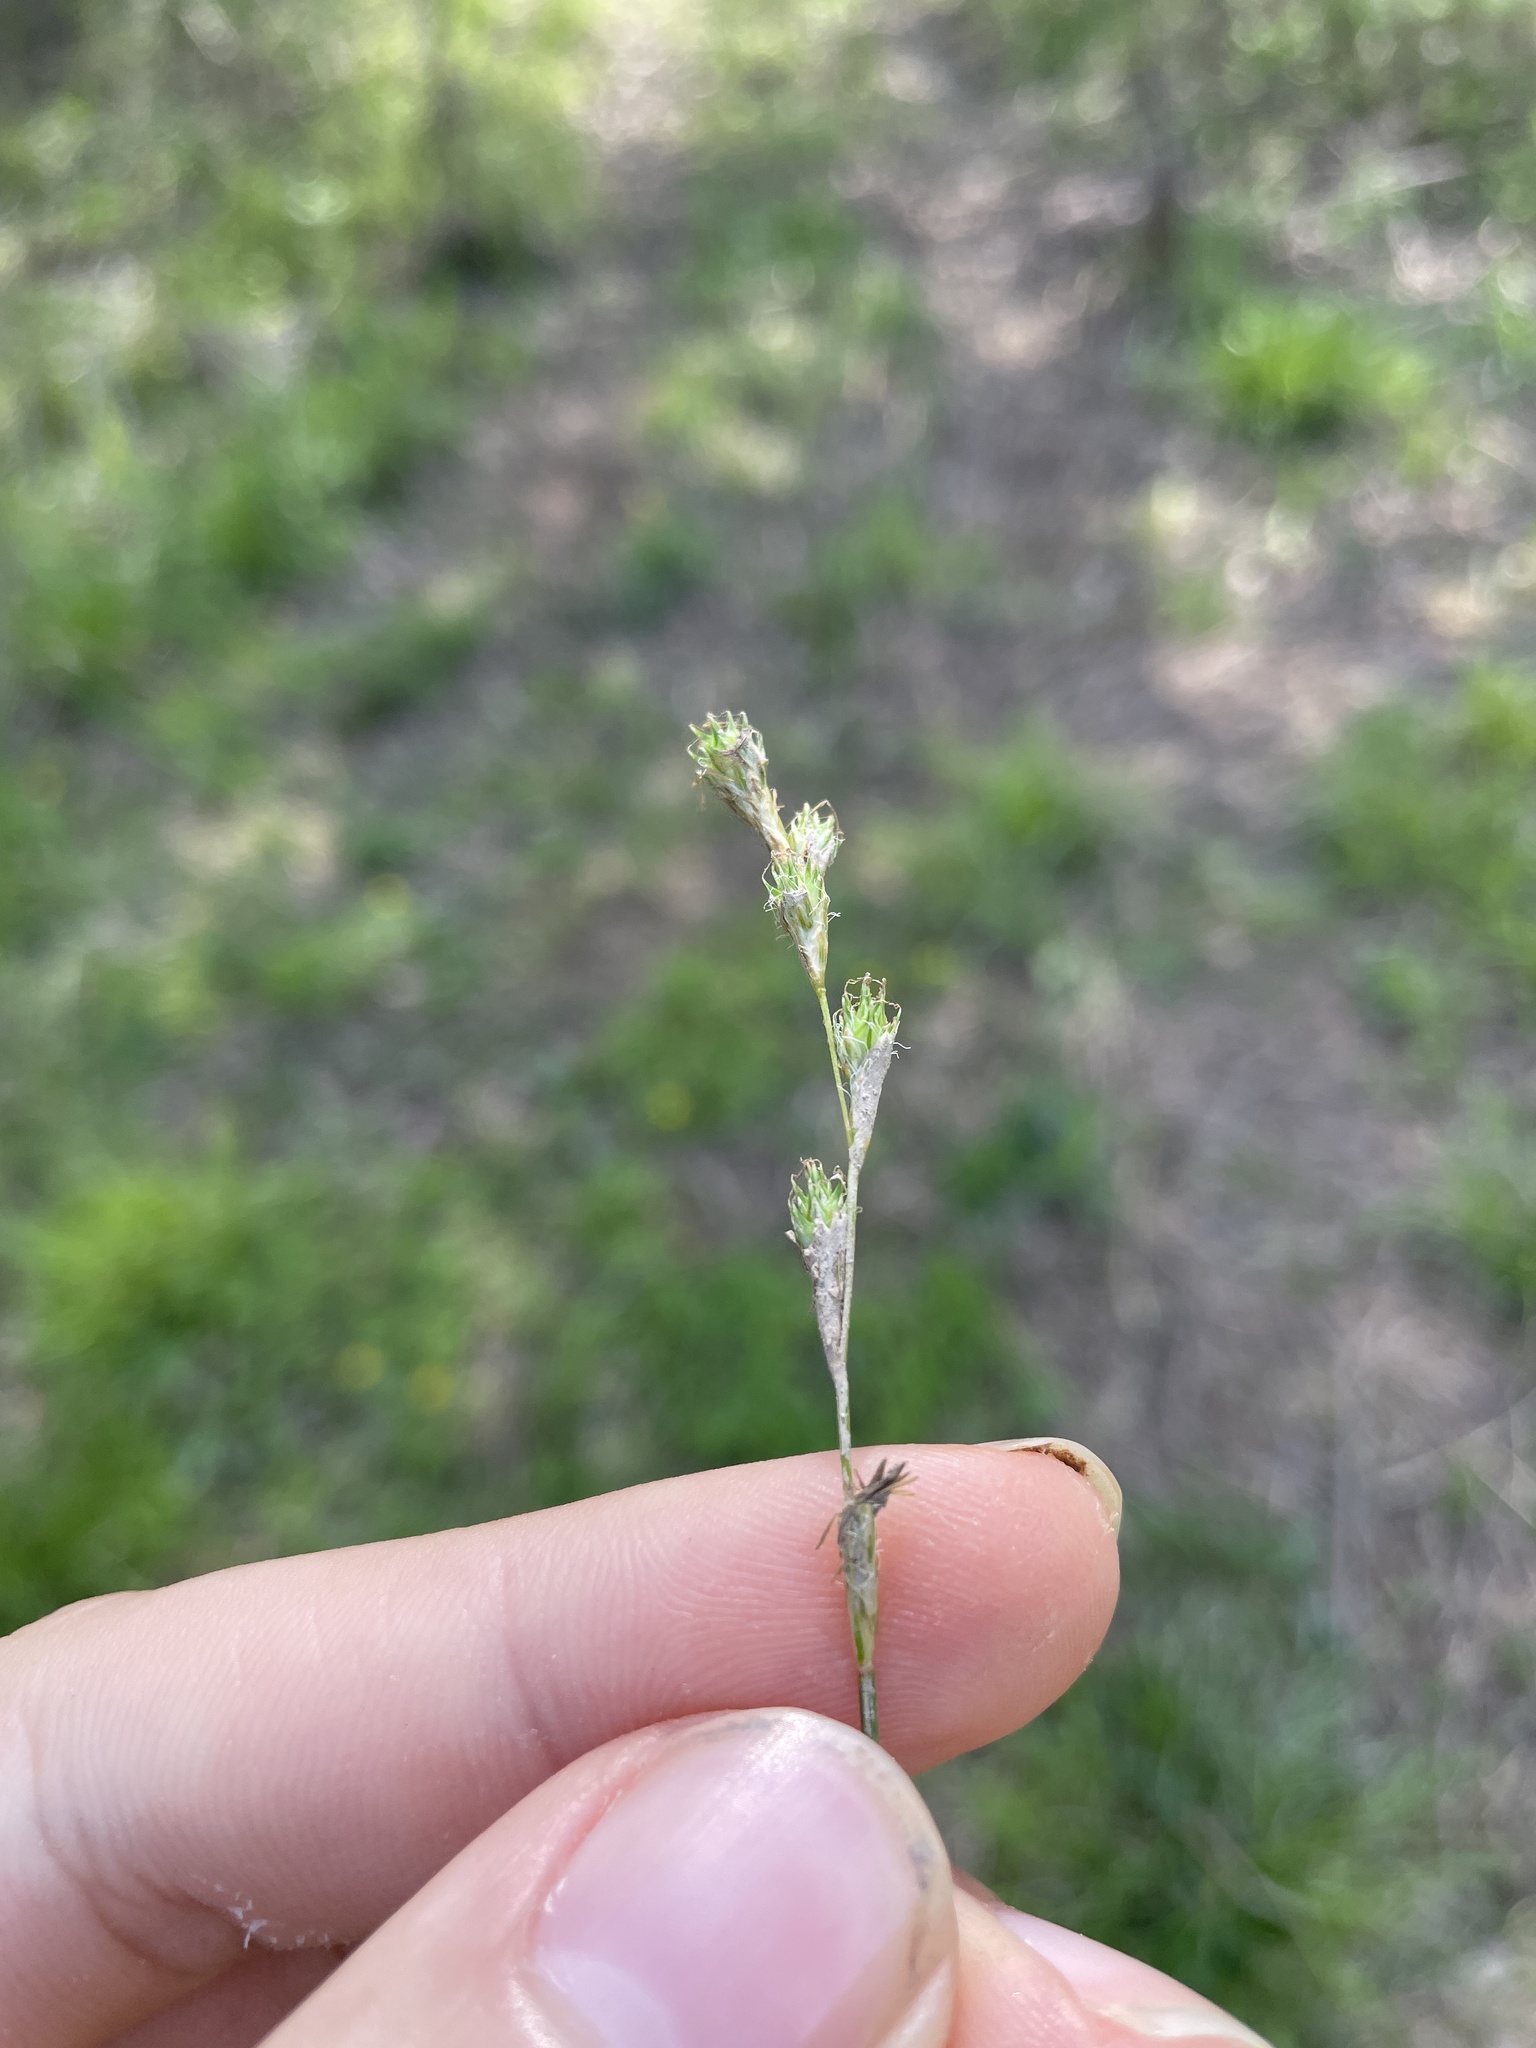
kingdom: Plantae
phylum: Tracheophyta
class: Liliopsida
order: Poales
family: Cyperaceae
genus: Carex
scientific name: Carex tribuloides
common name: Blunt broom sedge
